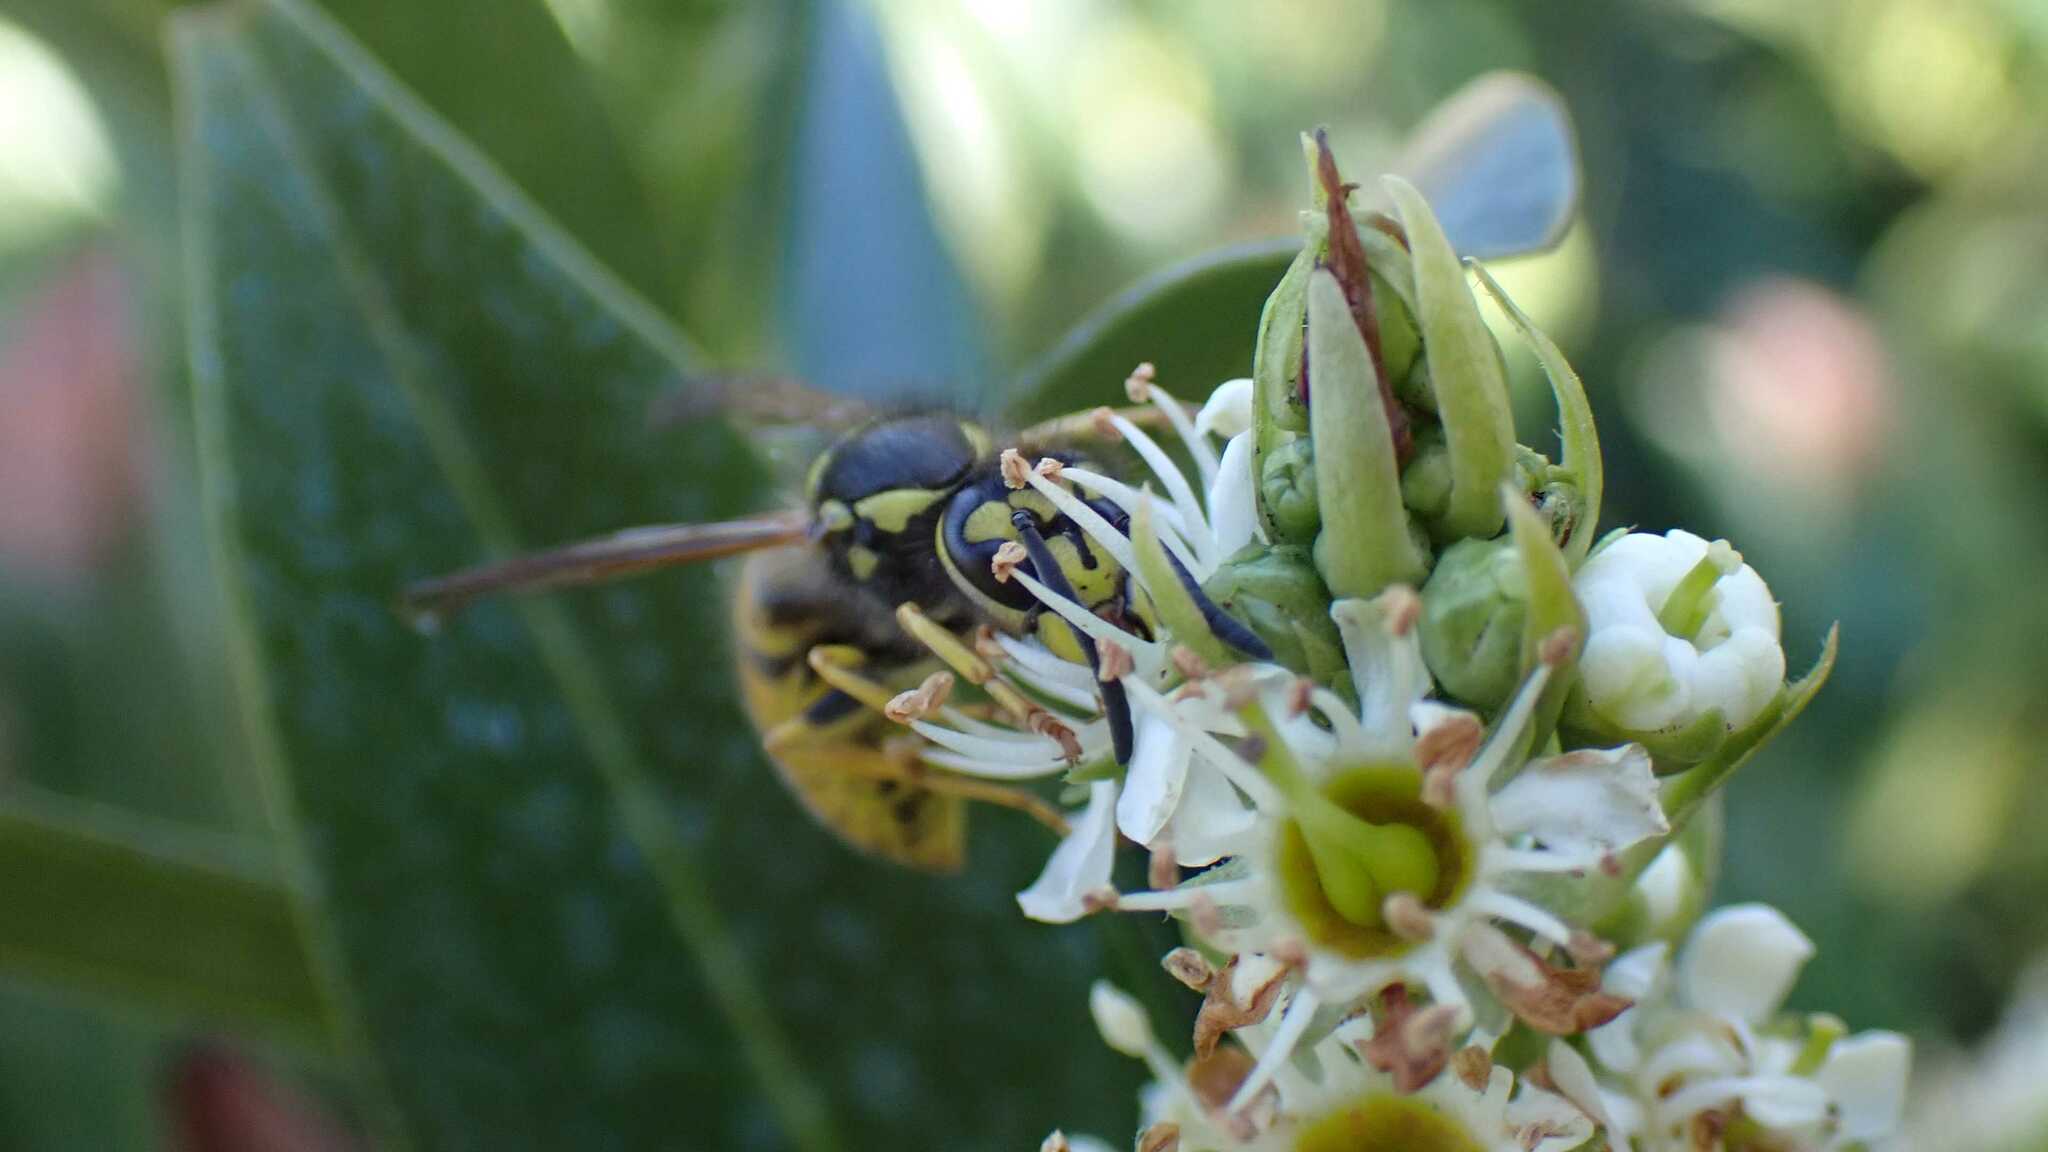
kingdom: Animalia
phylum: Arthropoda
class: Insecta
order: Hymenoptera
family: Vespidae
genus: Vespula
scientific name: Vespula germanica
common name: German wasp
